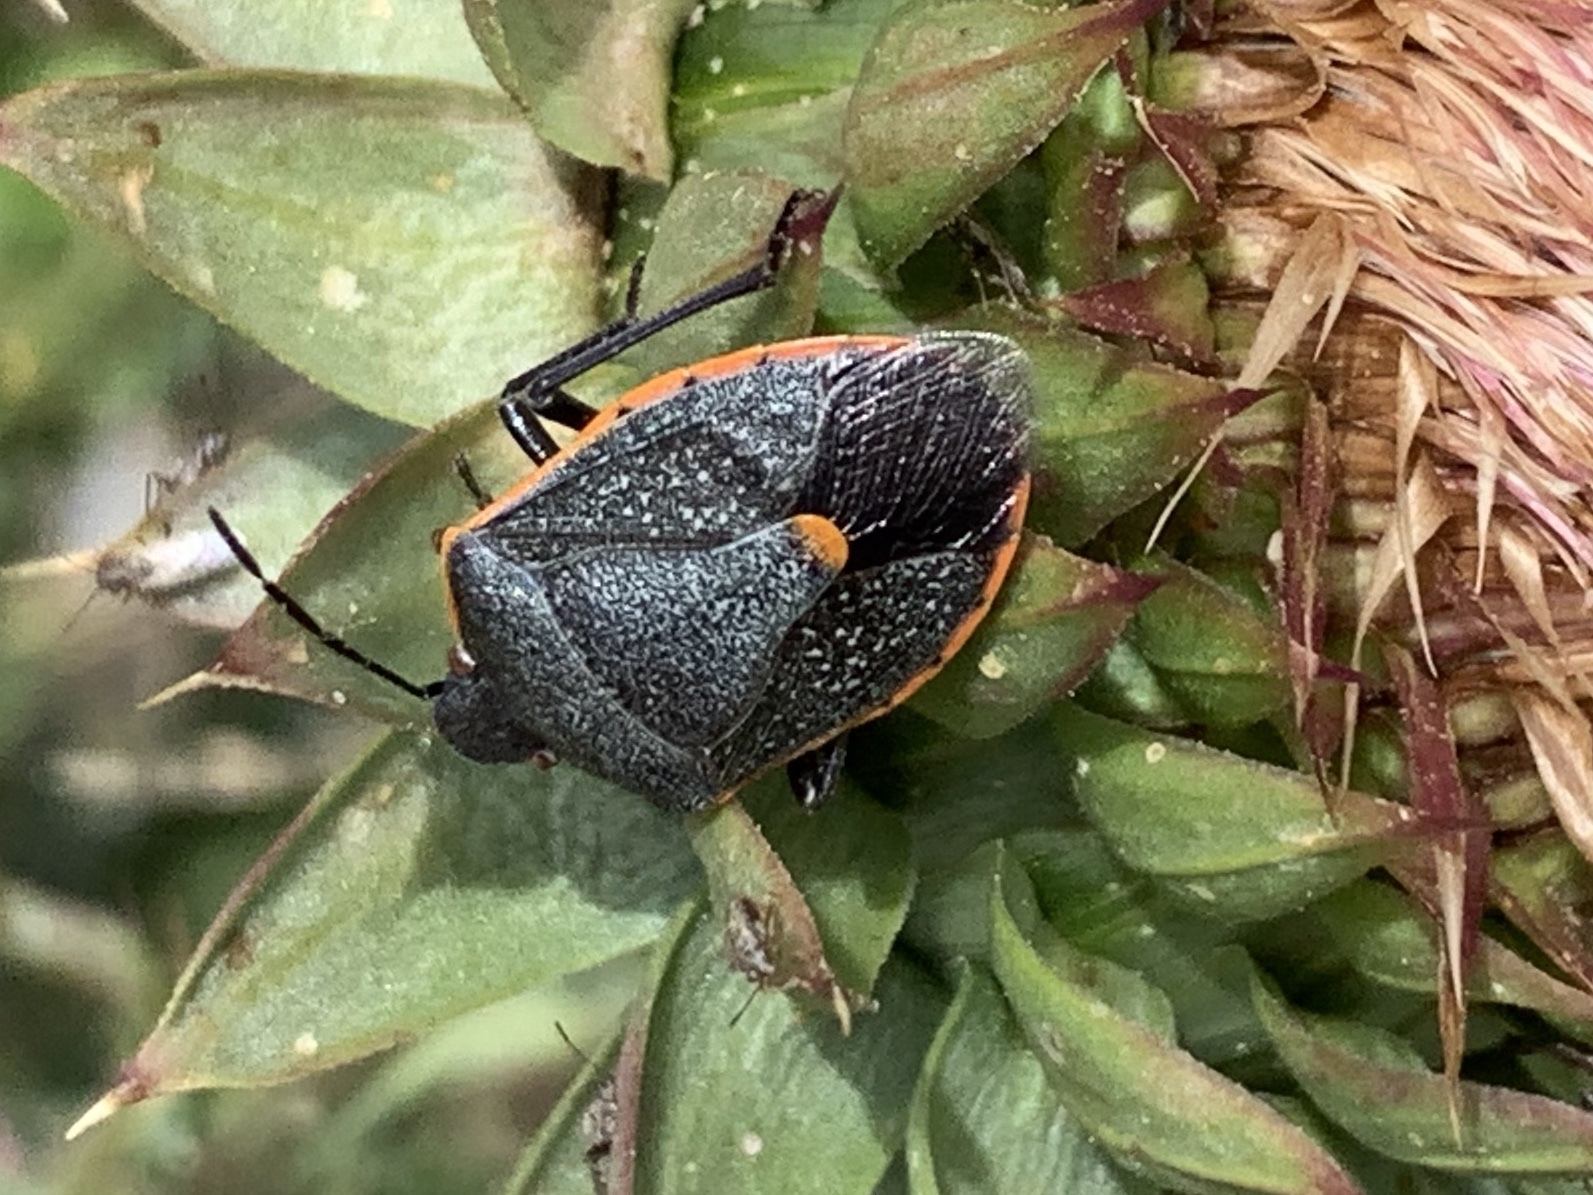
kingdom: Animalia
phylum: Arthropoda
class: Insecta
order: Hemiptera
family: Pentatomidae
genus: Chlorochroa
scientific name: Chlorochroa ligata
